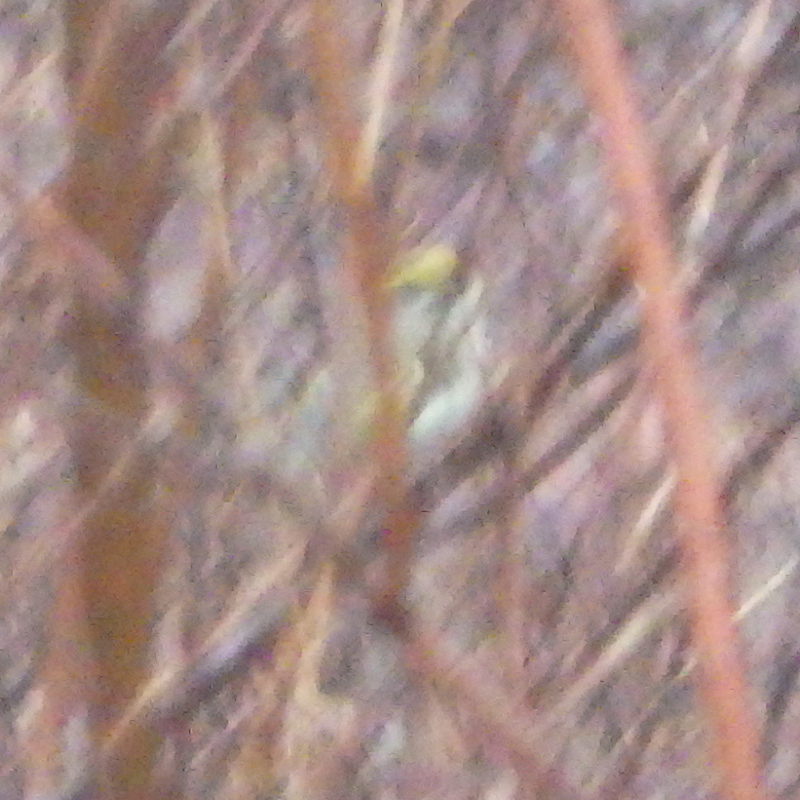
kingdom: Animalia
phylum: Chordata
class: Aves
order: Passeriformes
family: Regulidae
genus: Regulus
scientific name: Regulus satrapa
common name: Golden-crowned kinglet
